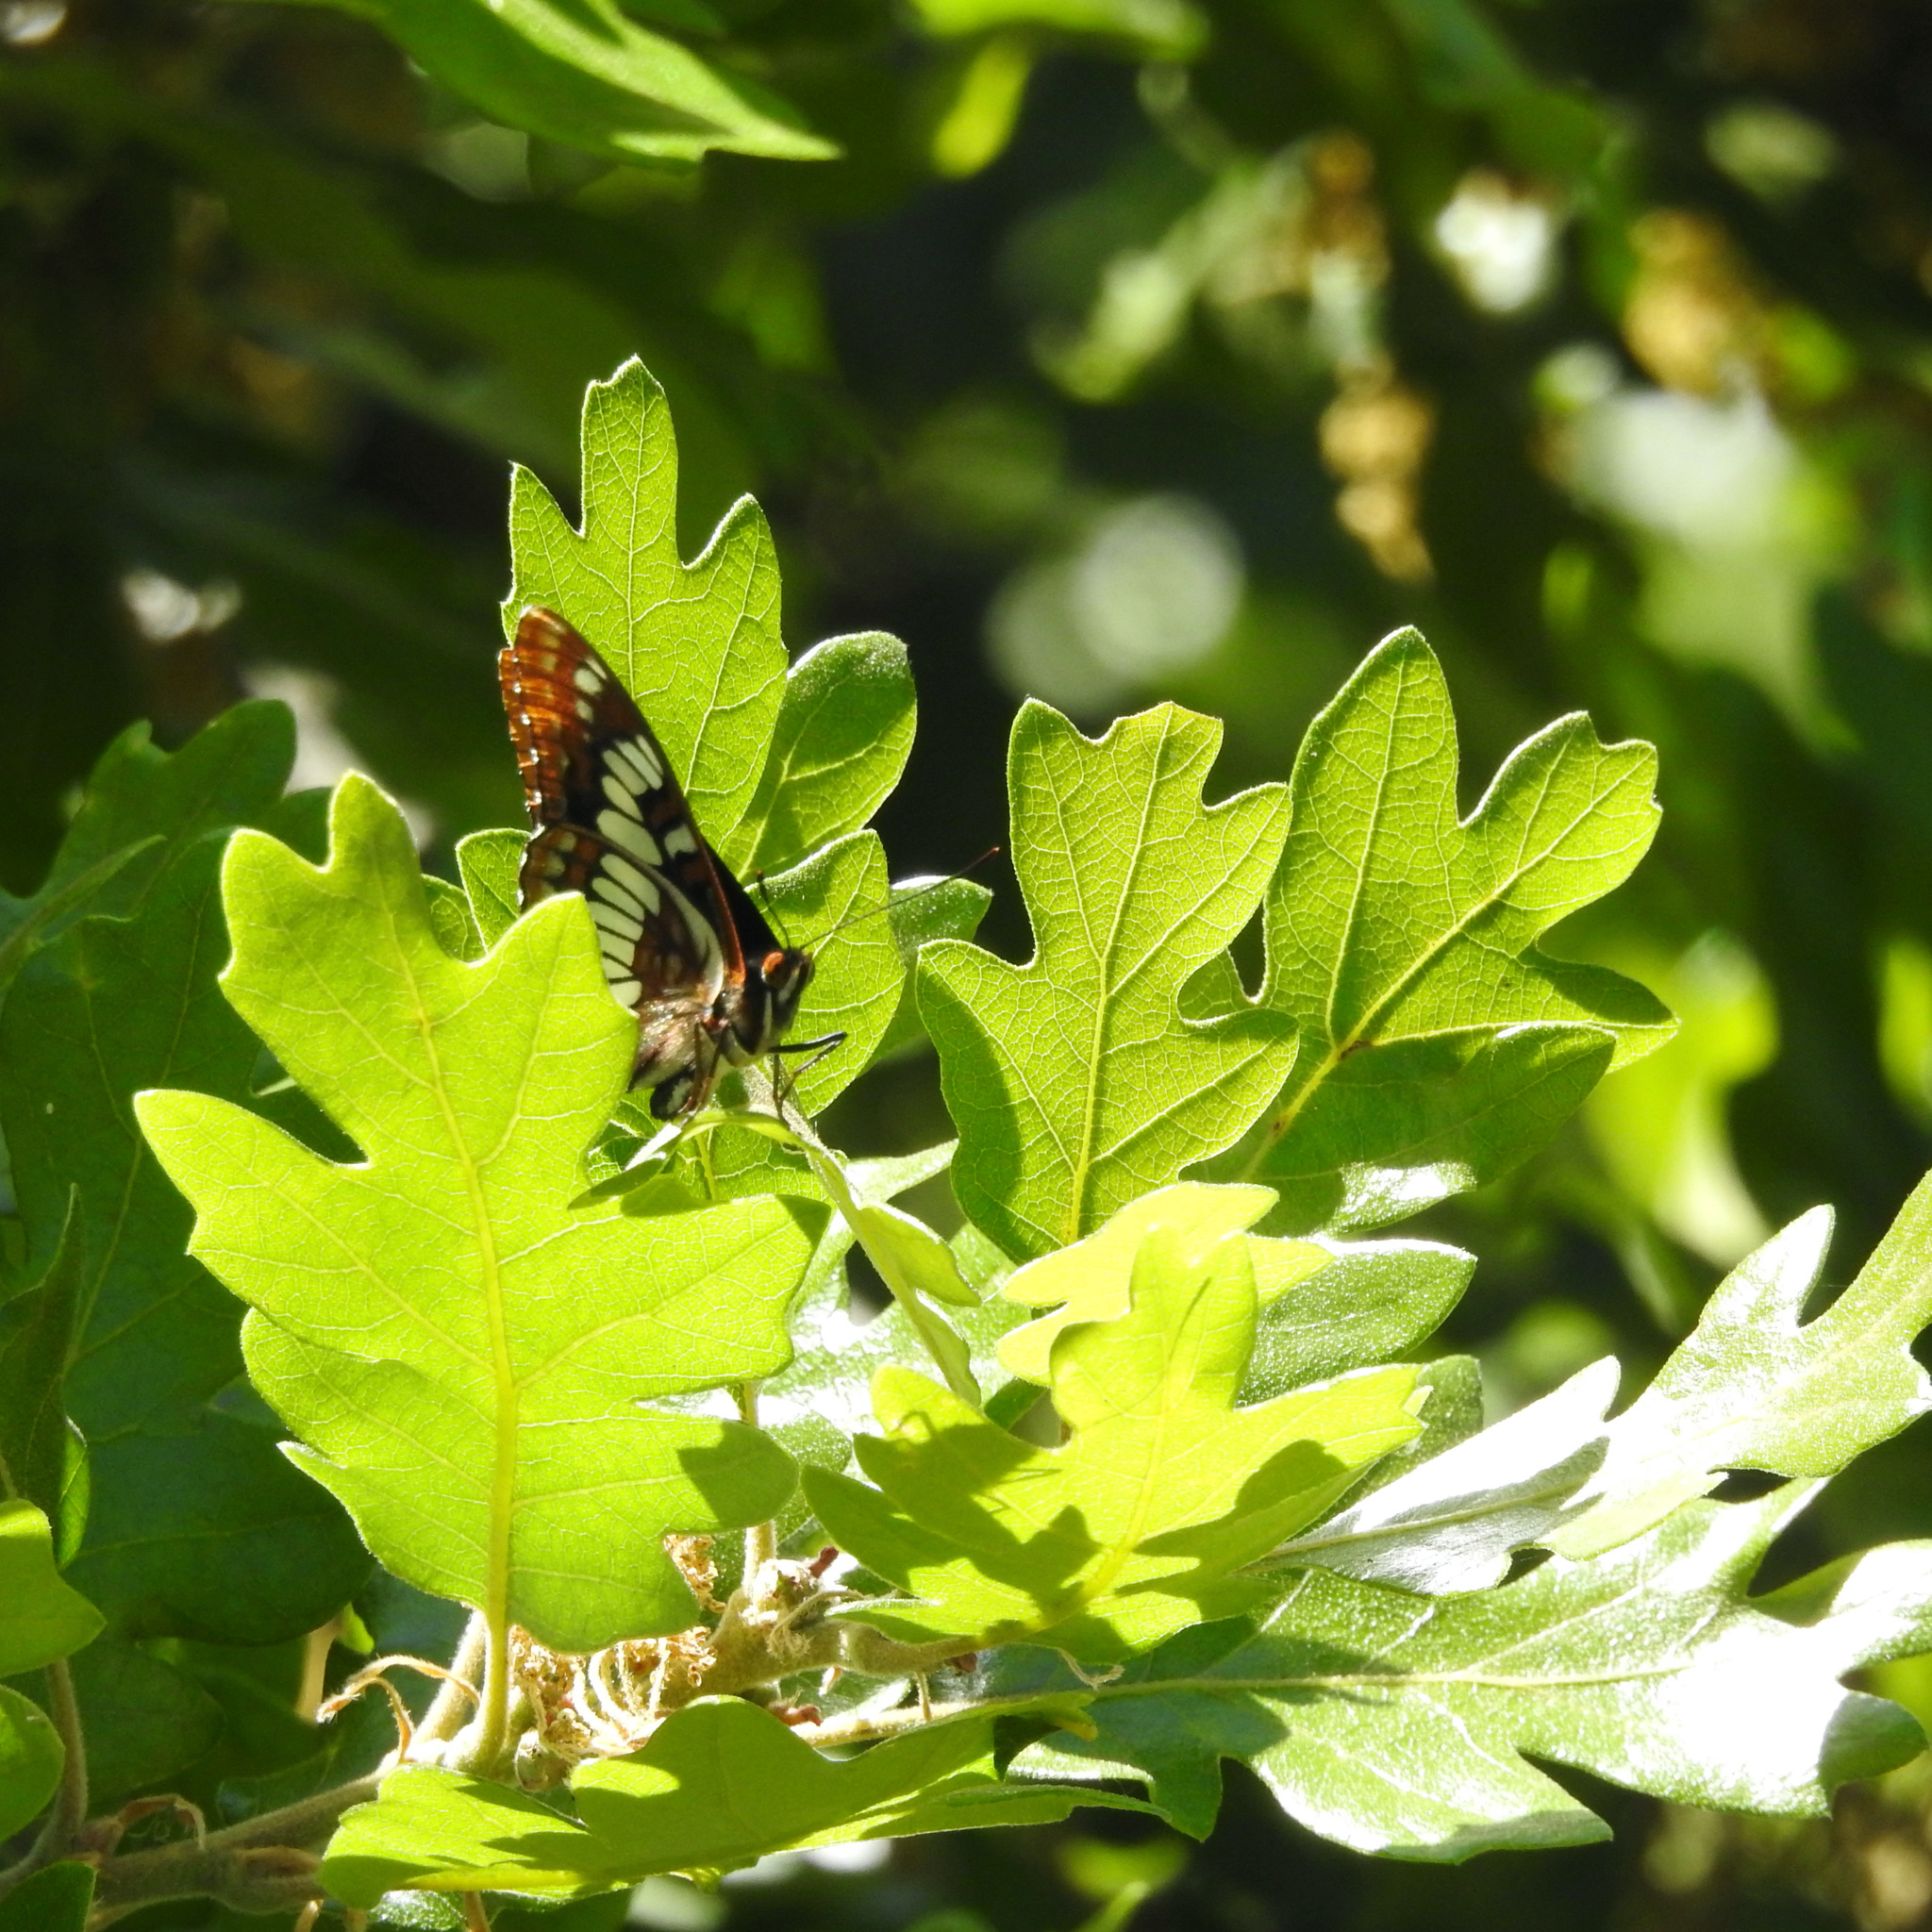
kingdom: Animalia
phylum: Arthropoda
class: Insecta
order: Lepidoptera
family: Nymphalidae
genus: Limenitis
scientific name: Limenitis lorquini
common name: Lorquin's admiral
